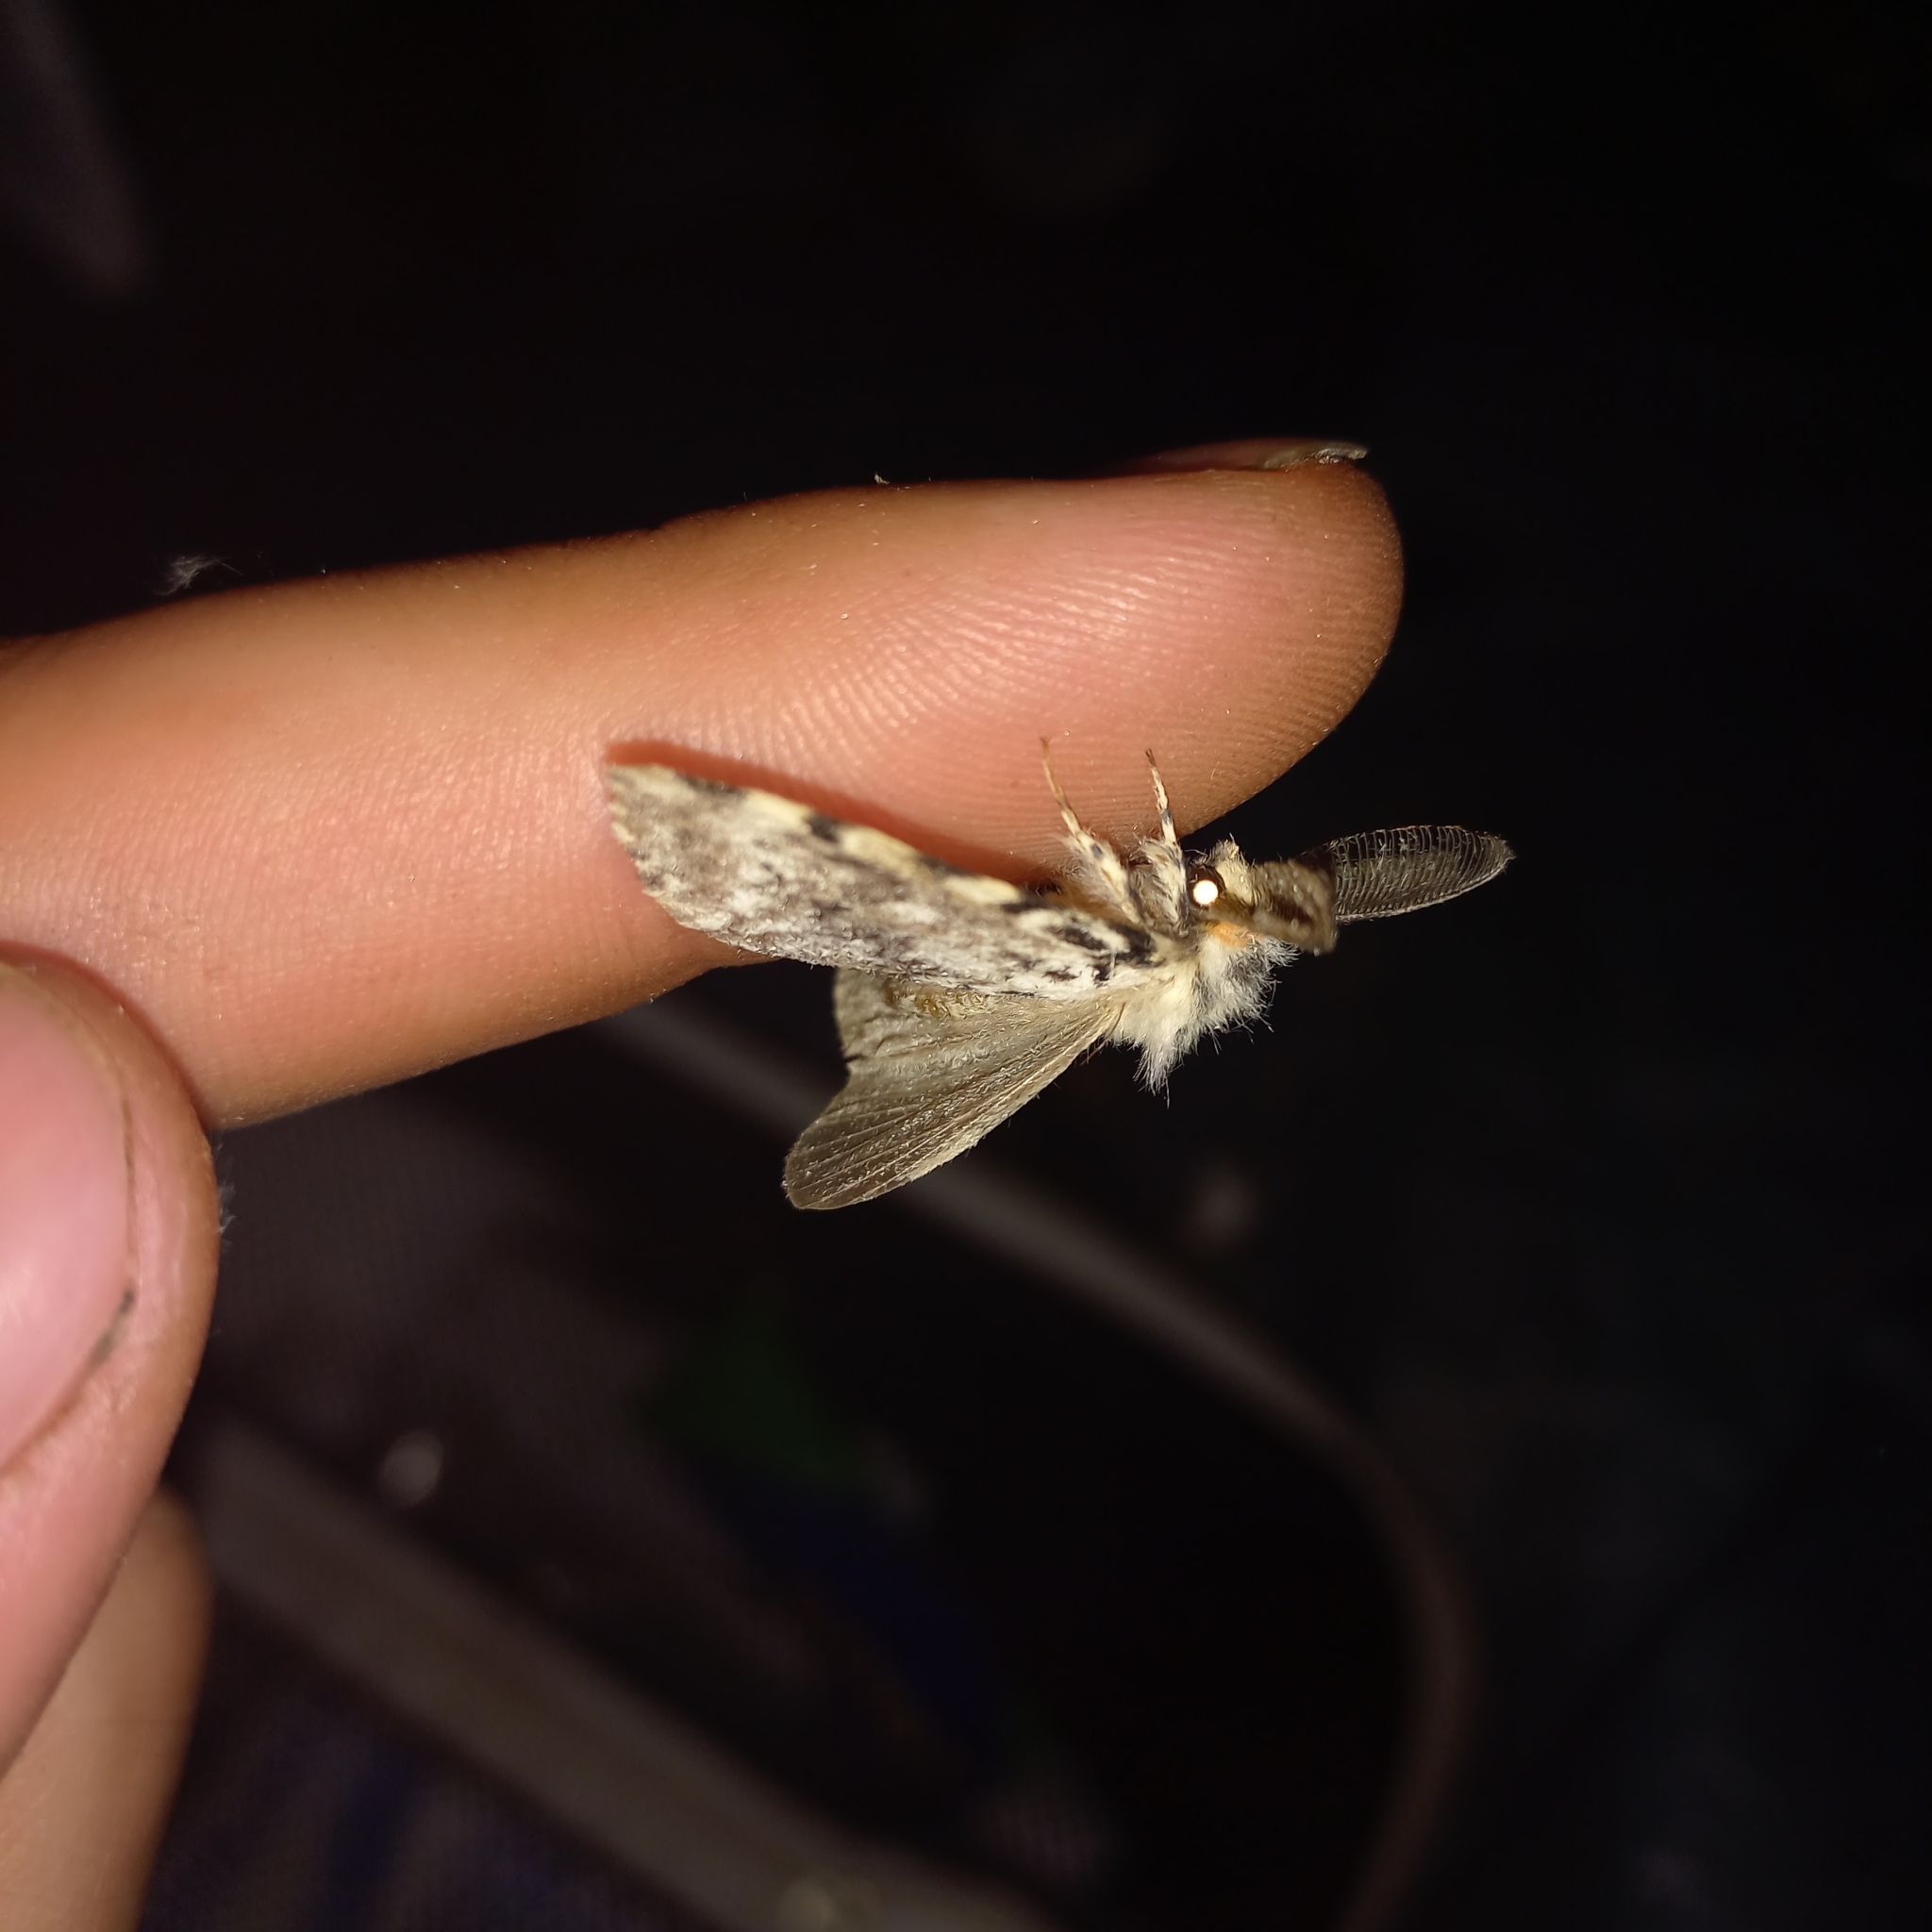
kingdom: Animalia
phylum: Arthropoda
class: Insecta
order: Lepidoptera
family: Erebidae
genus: Lymantria
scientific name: Lymantria monacha
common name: Black arches
